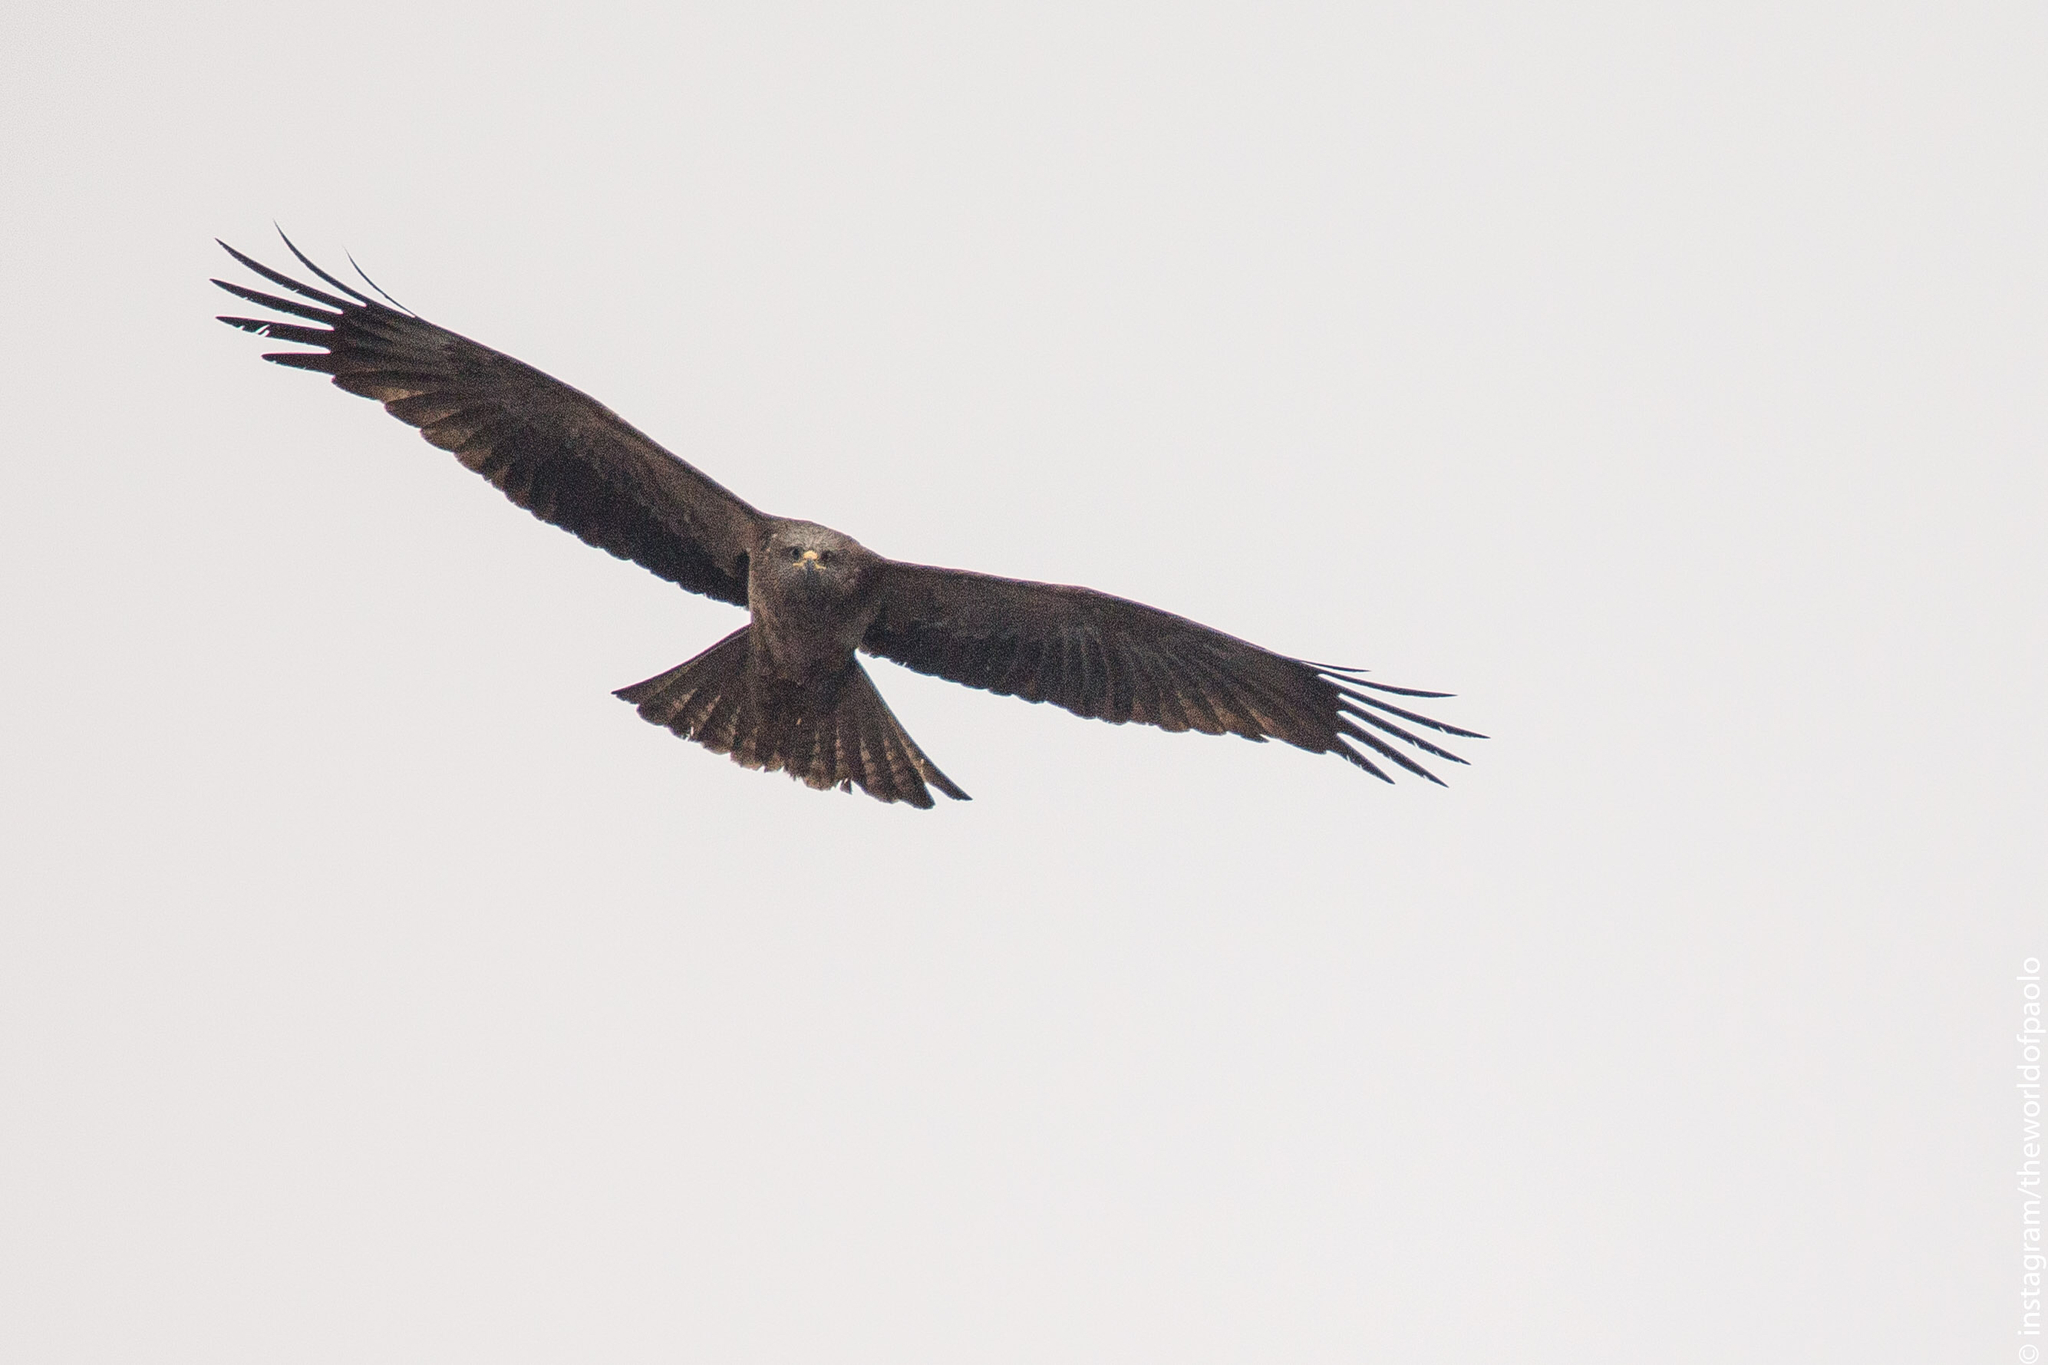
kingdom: Animalia
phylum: Chordata
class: Aves
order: Accipitriformes
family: Accipitridae
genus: Milvus
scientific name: Milvus migrans
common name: Black kite
